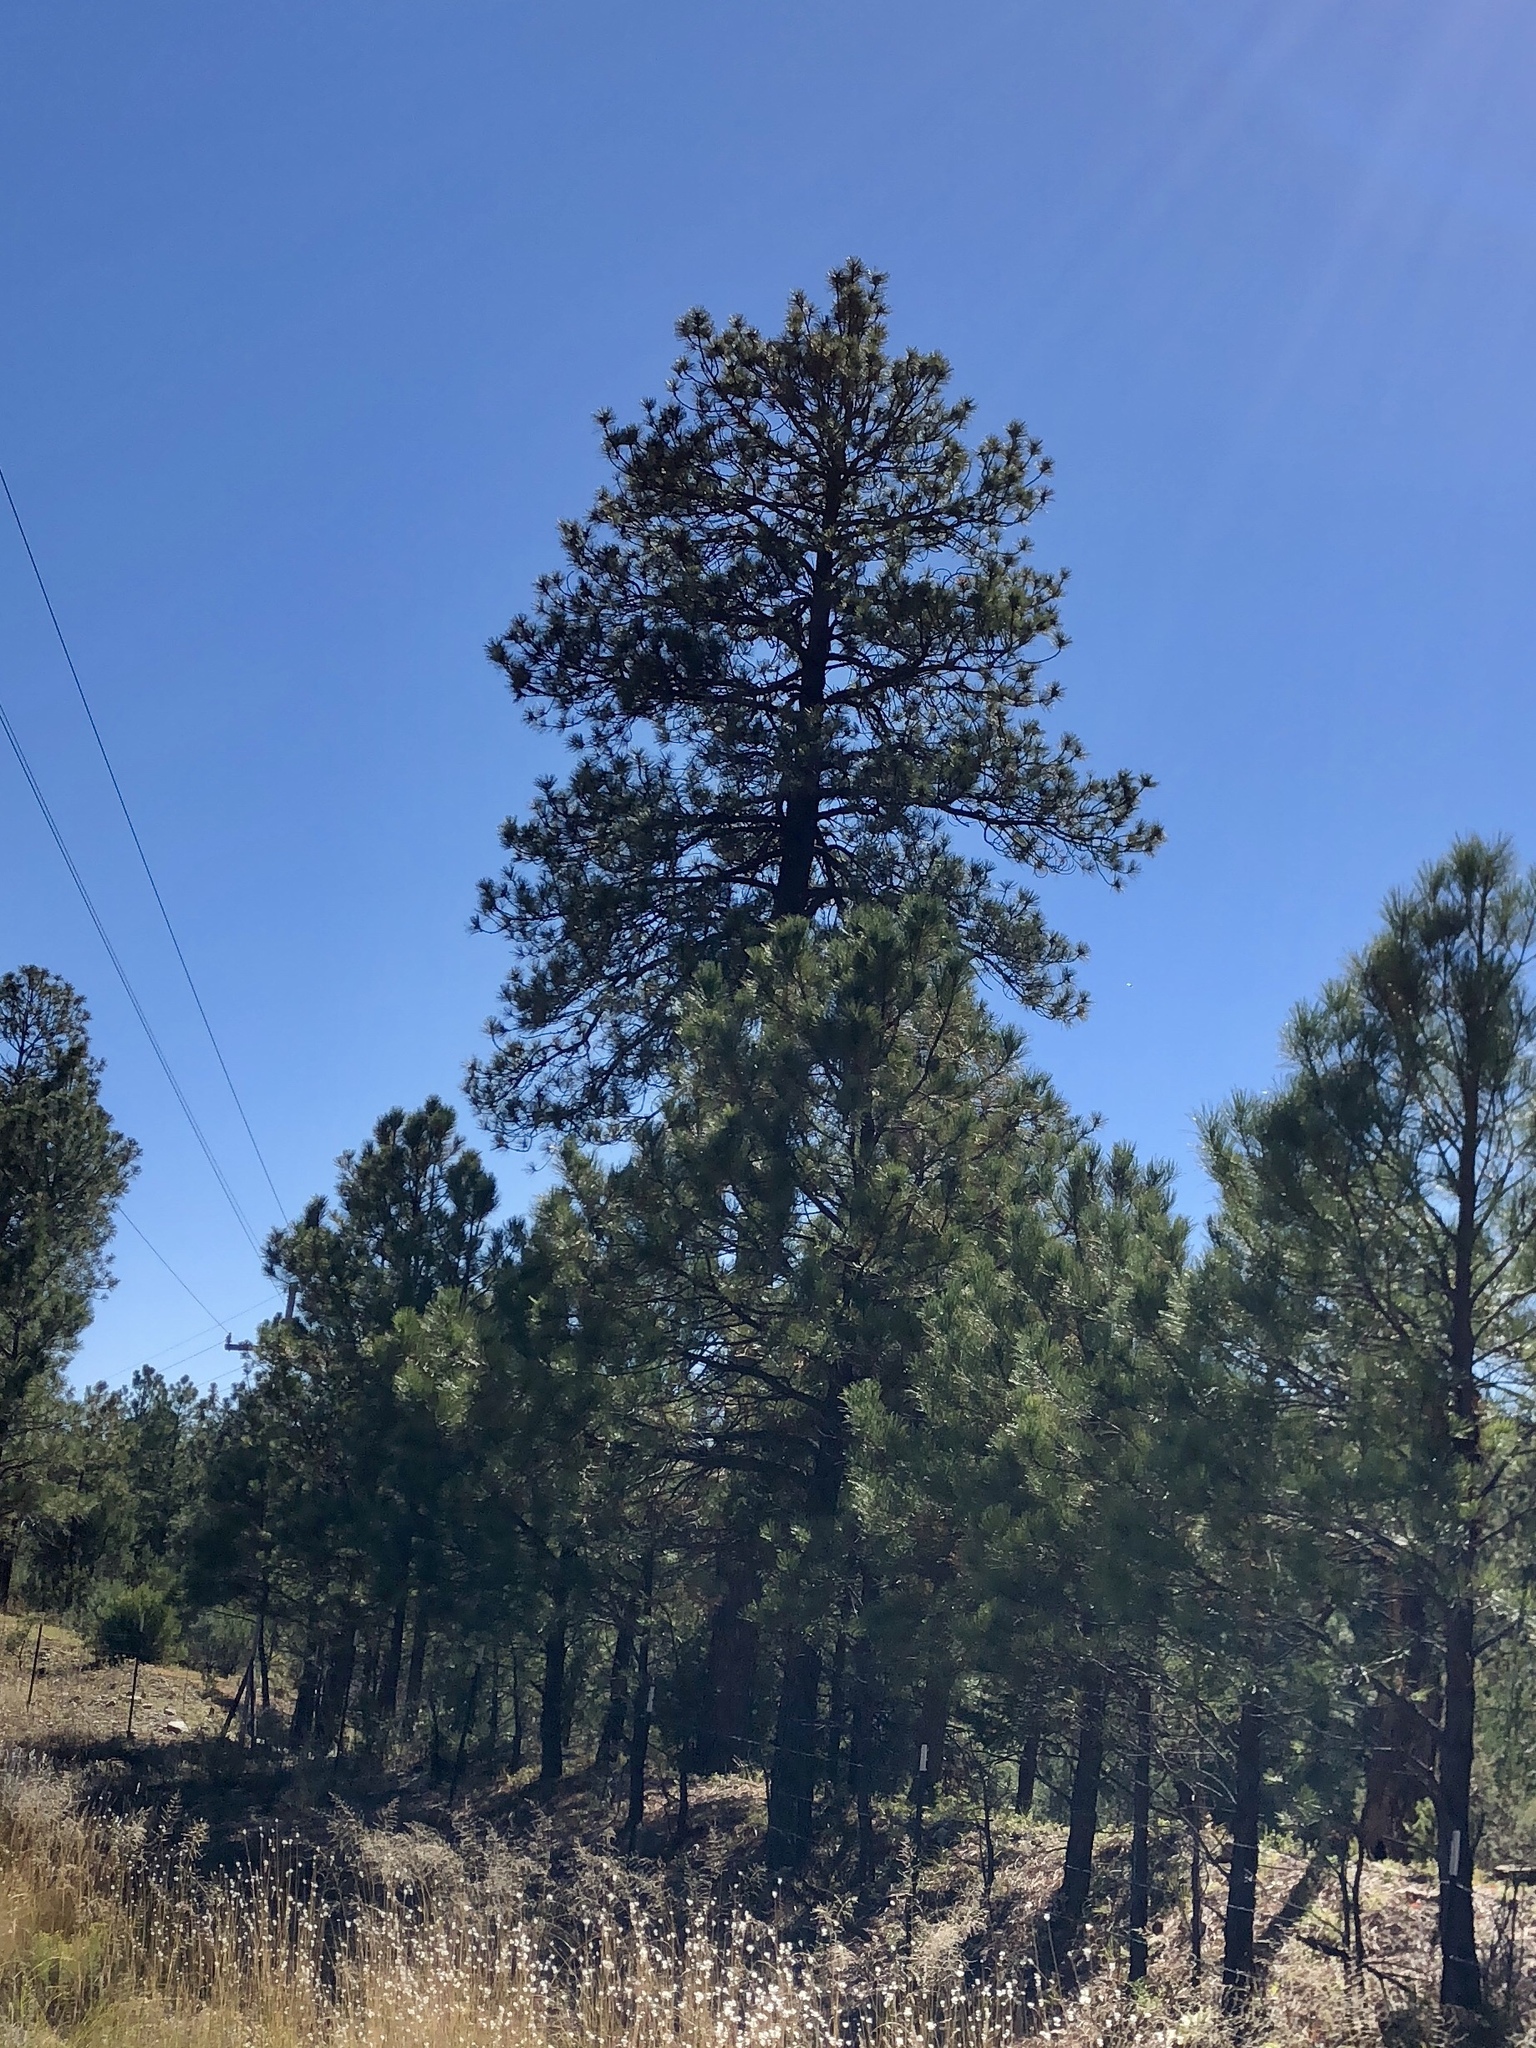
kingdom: Plantae
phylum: Tracheophyta
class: Pinopsida
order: Pinales
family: Pinaceae
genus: Pinus
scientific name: Pinus ponderosa
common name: Western yellow-pine
